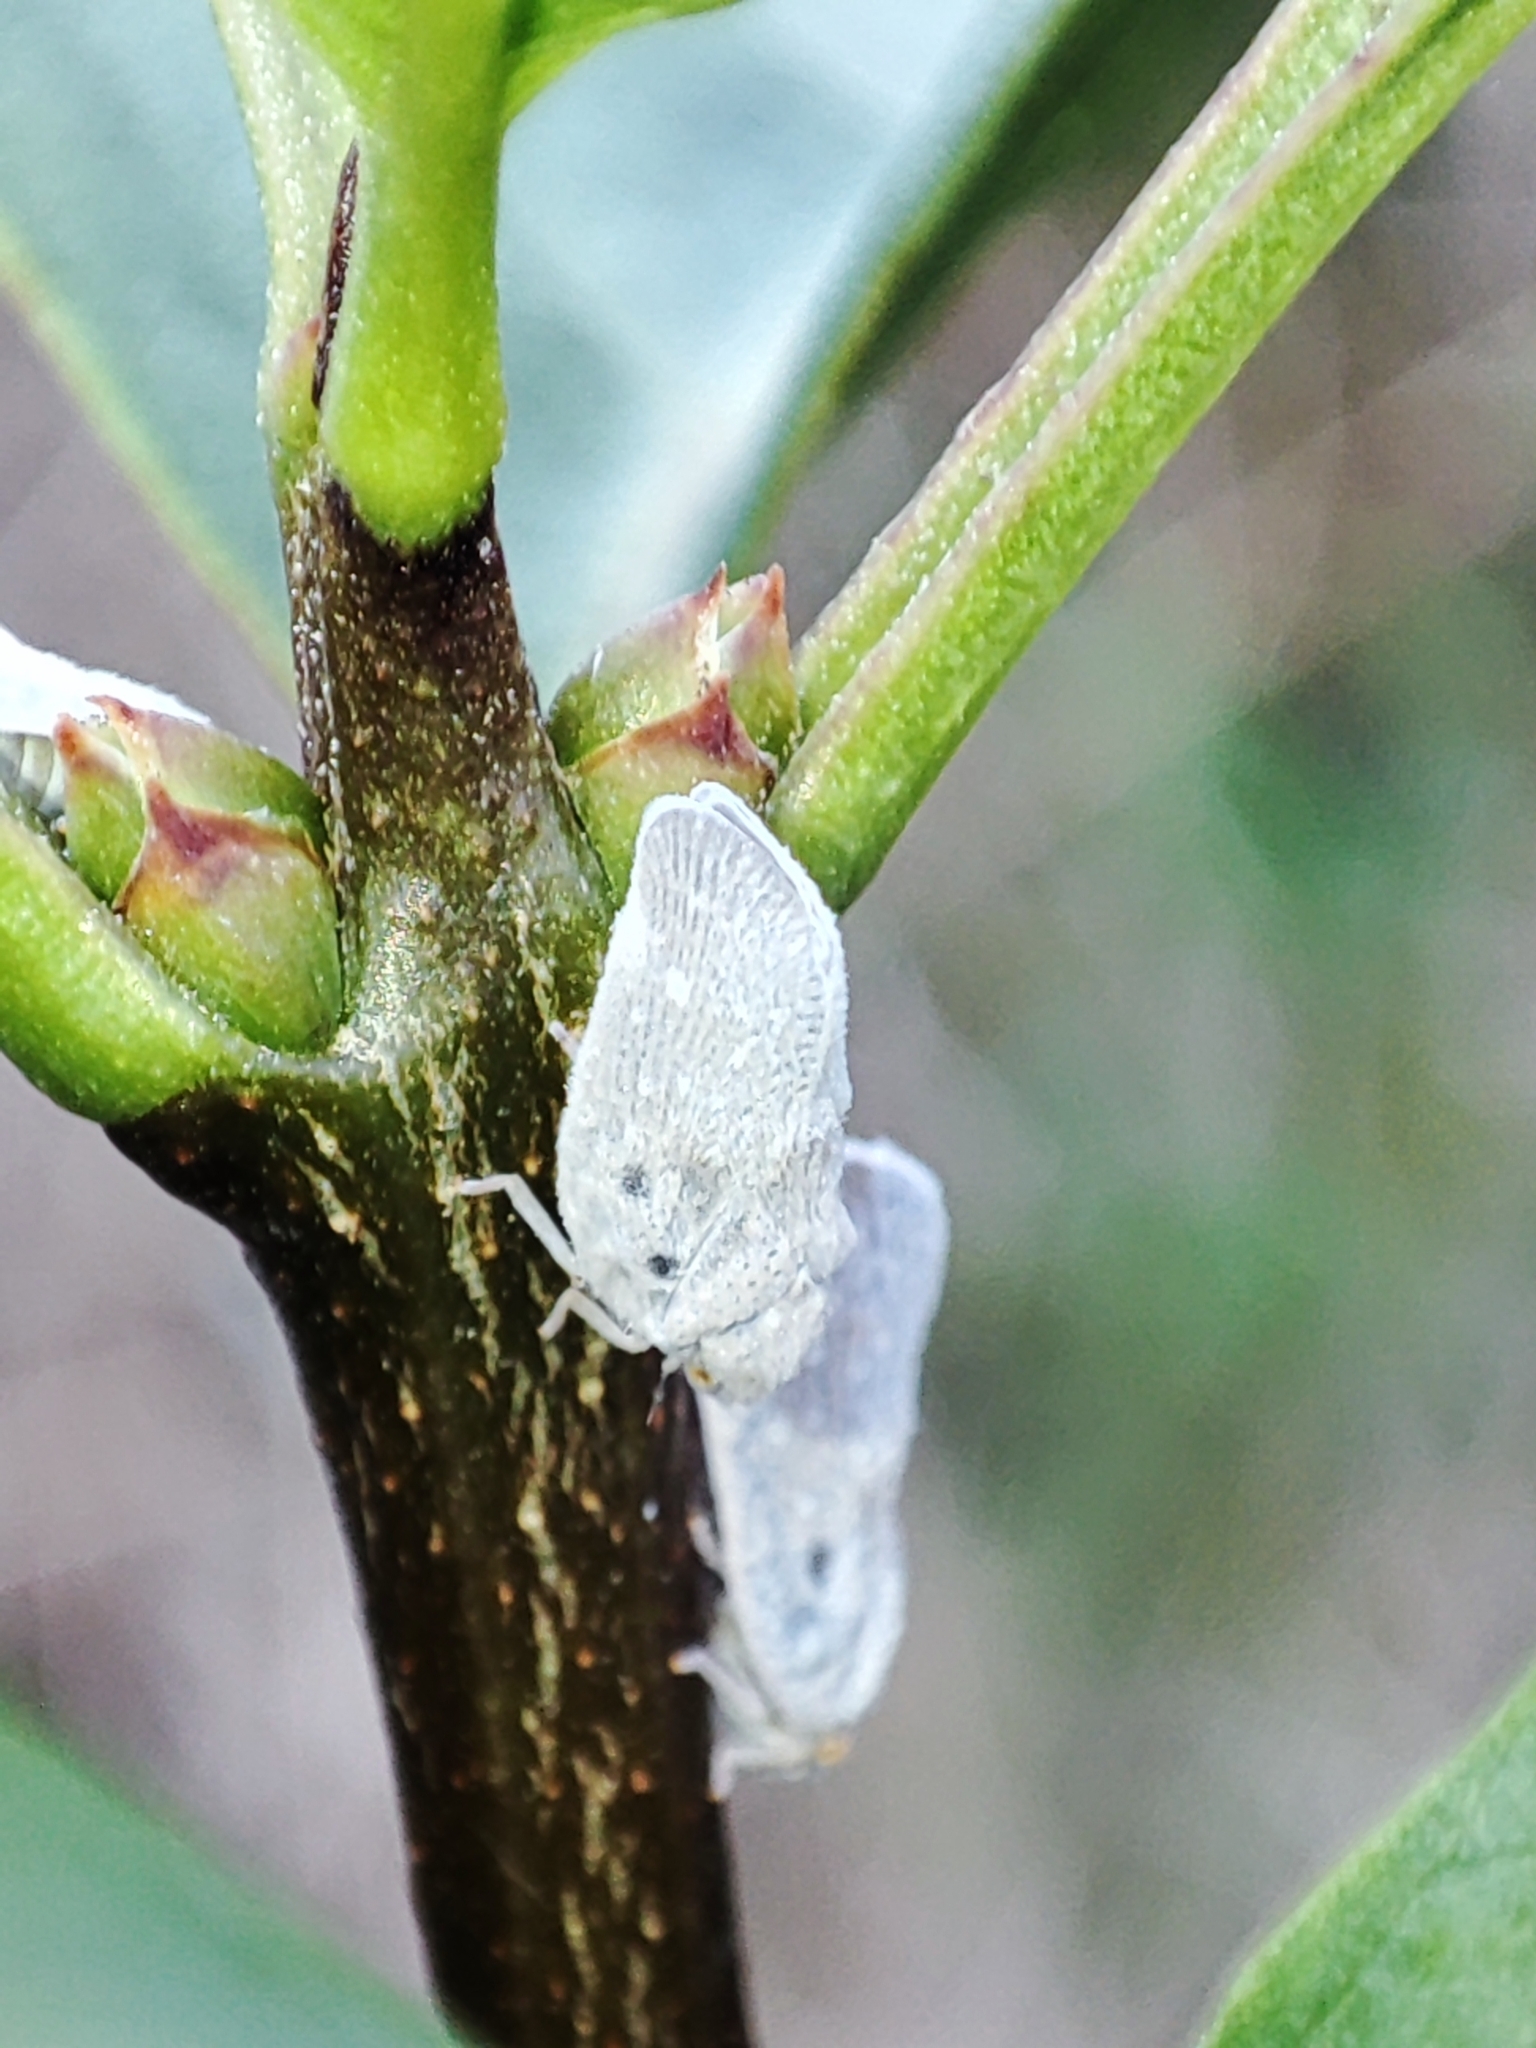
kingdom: Animalia
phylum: Arthropoda
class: Insecta
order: Hemiptera
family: Flatidae
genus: Metcalfa
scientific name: Metcalfa pruinosa
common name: Citrus flatid planthopper
